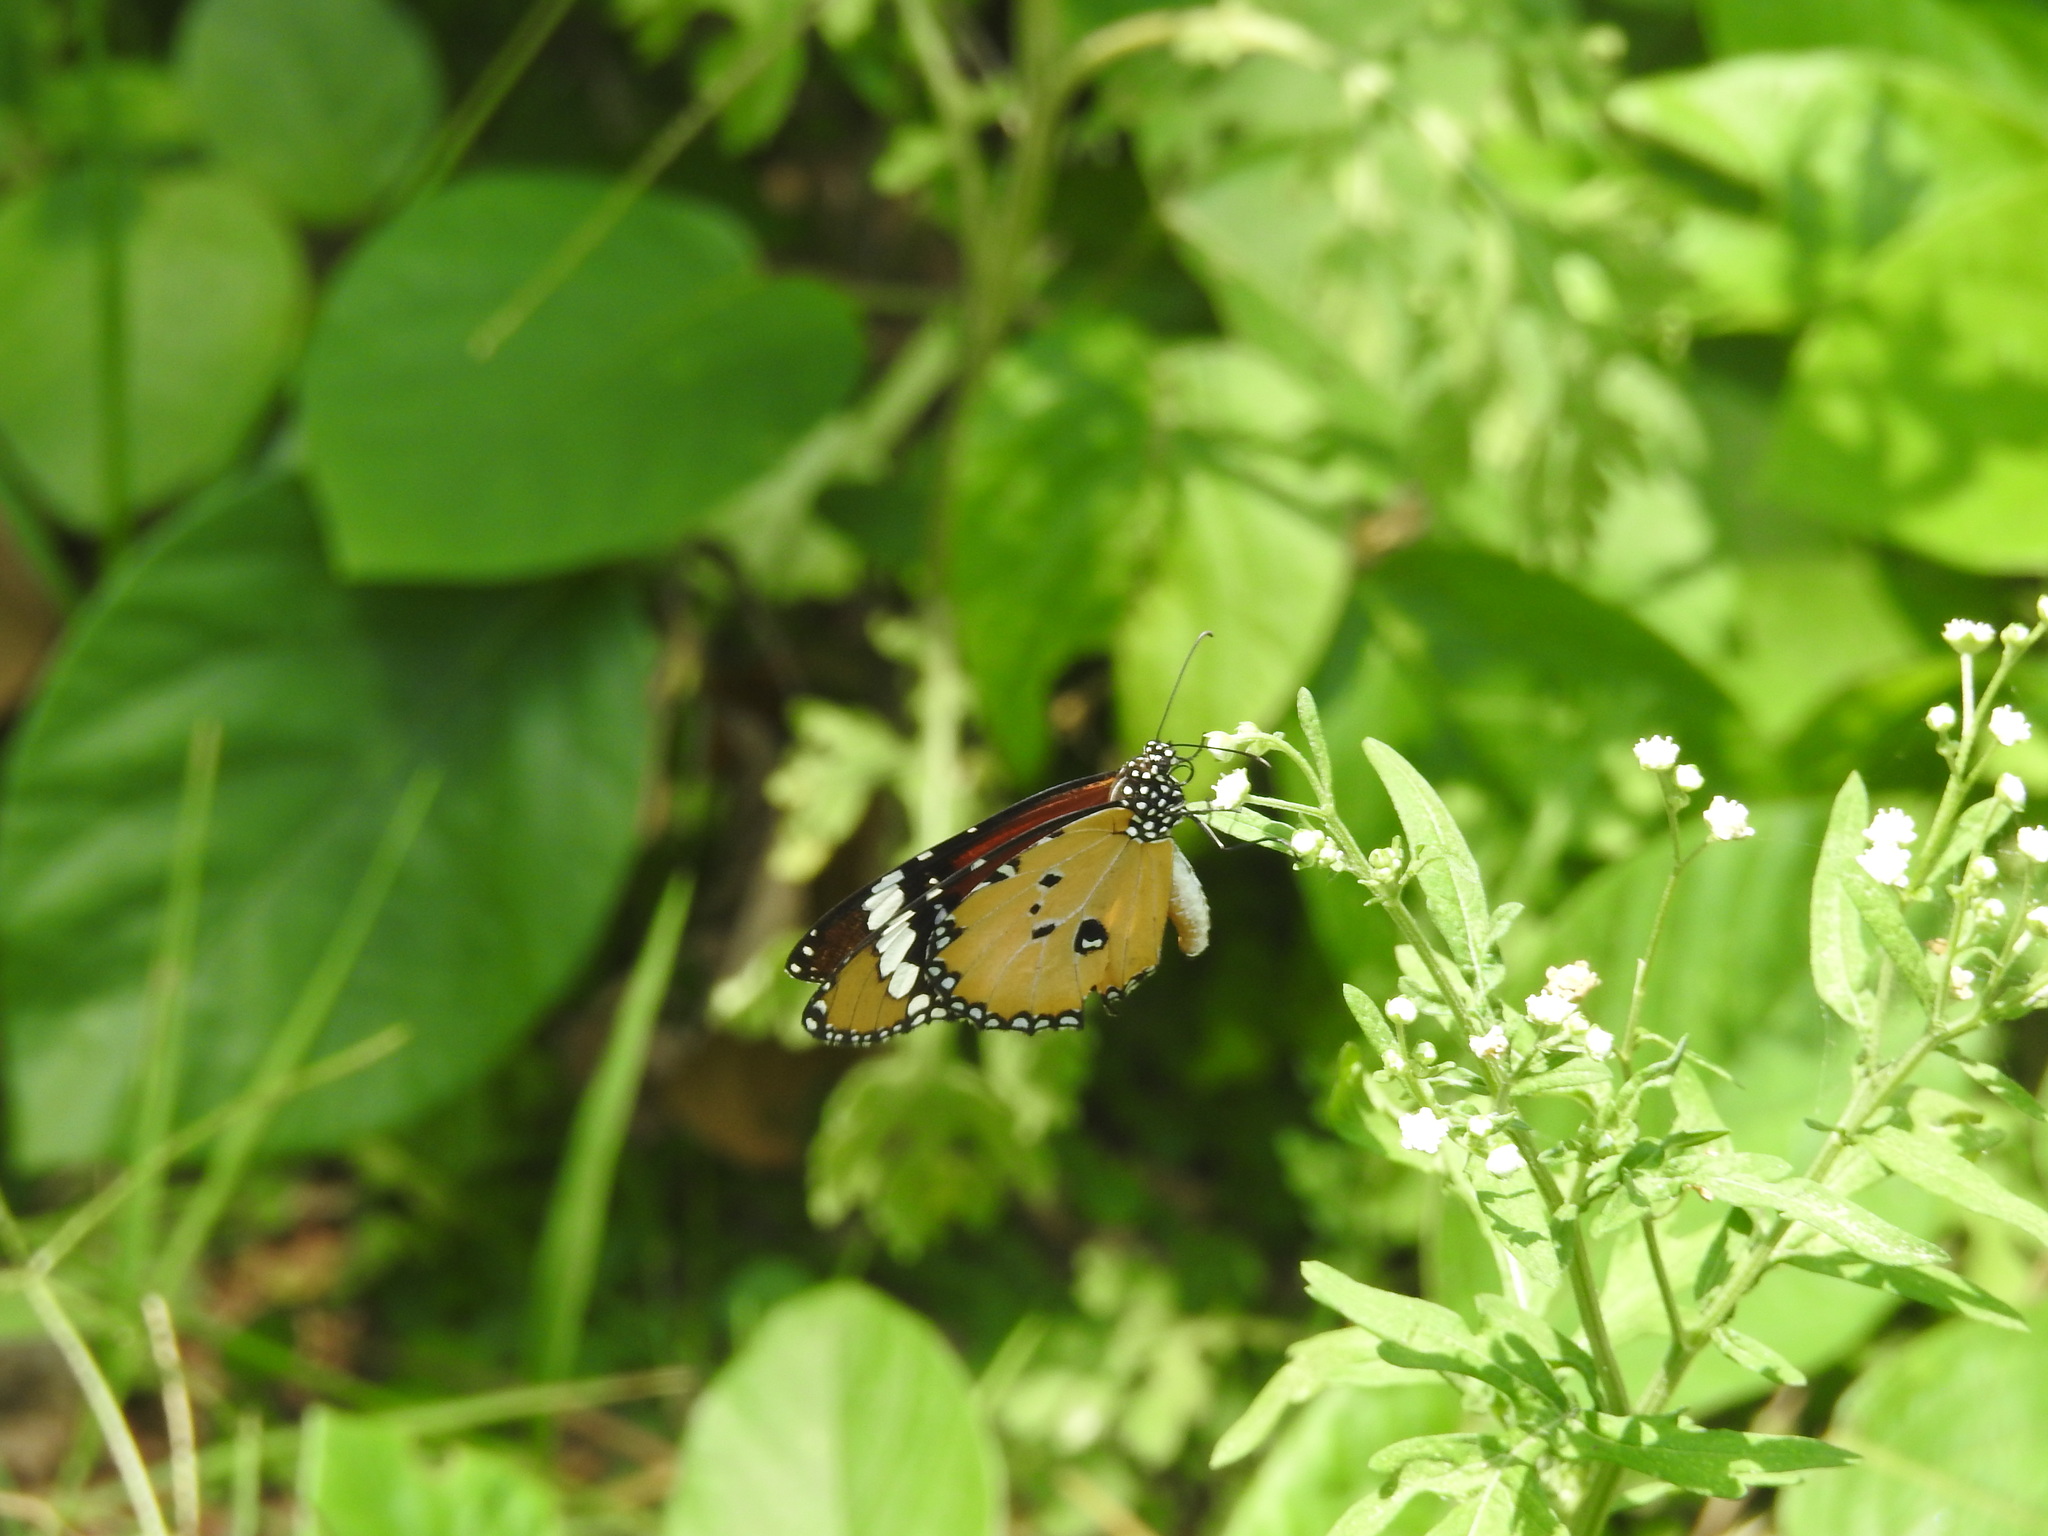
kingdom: Animalia
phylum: Arthropoda
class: Insecta
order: Lepidoptera
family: Nymphalidae
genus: Danaus
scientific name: Danaus chrysippus
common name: Plain tiger
